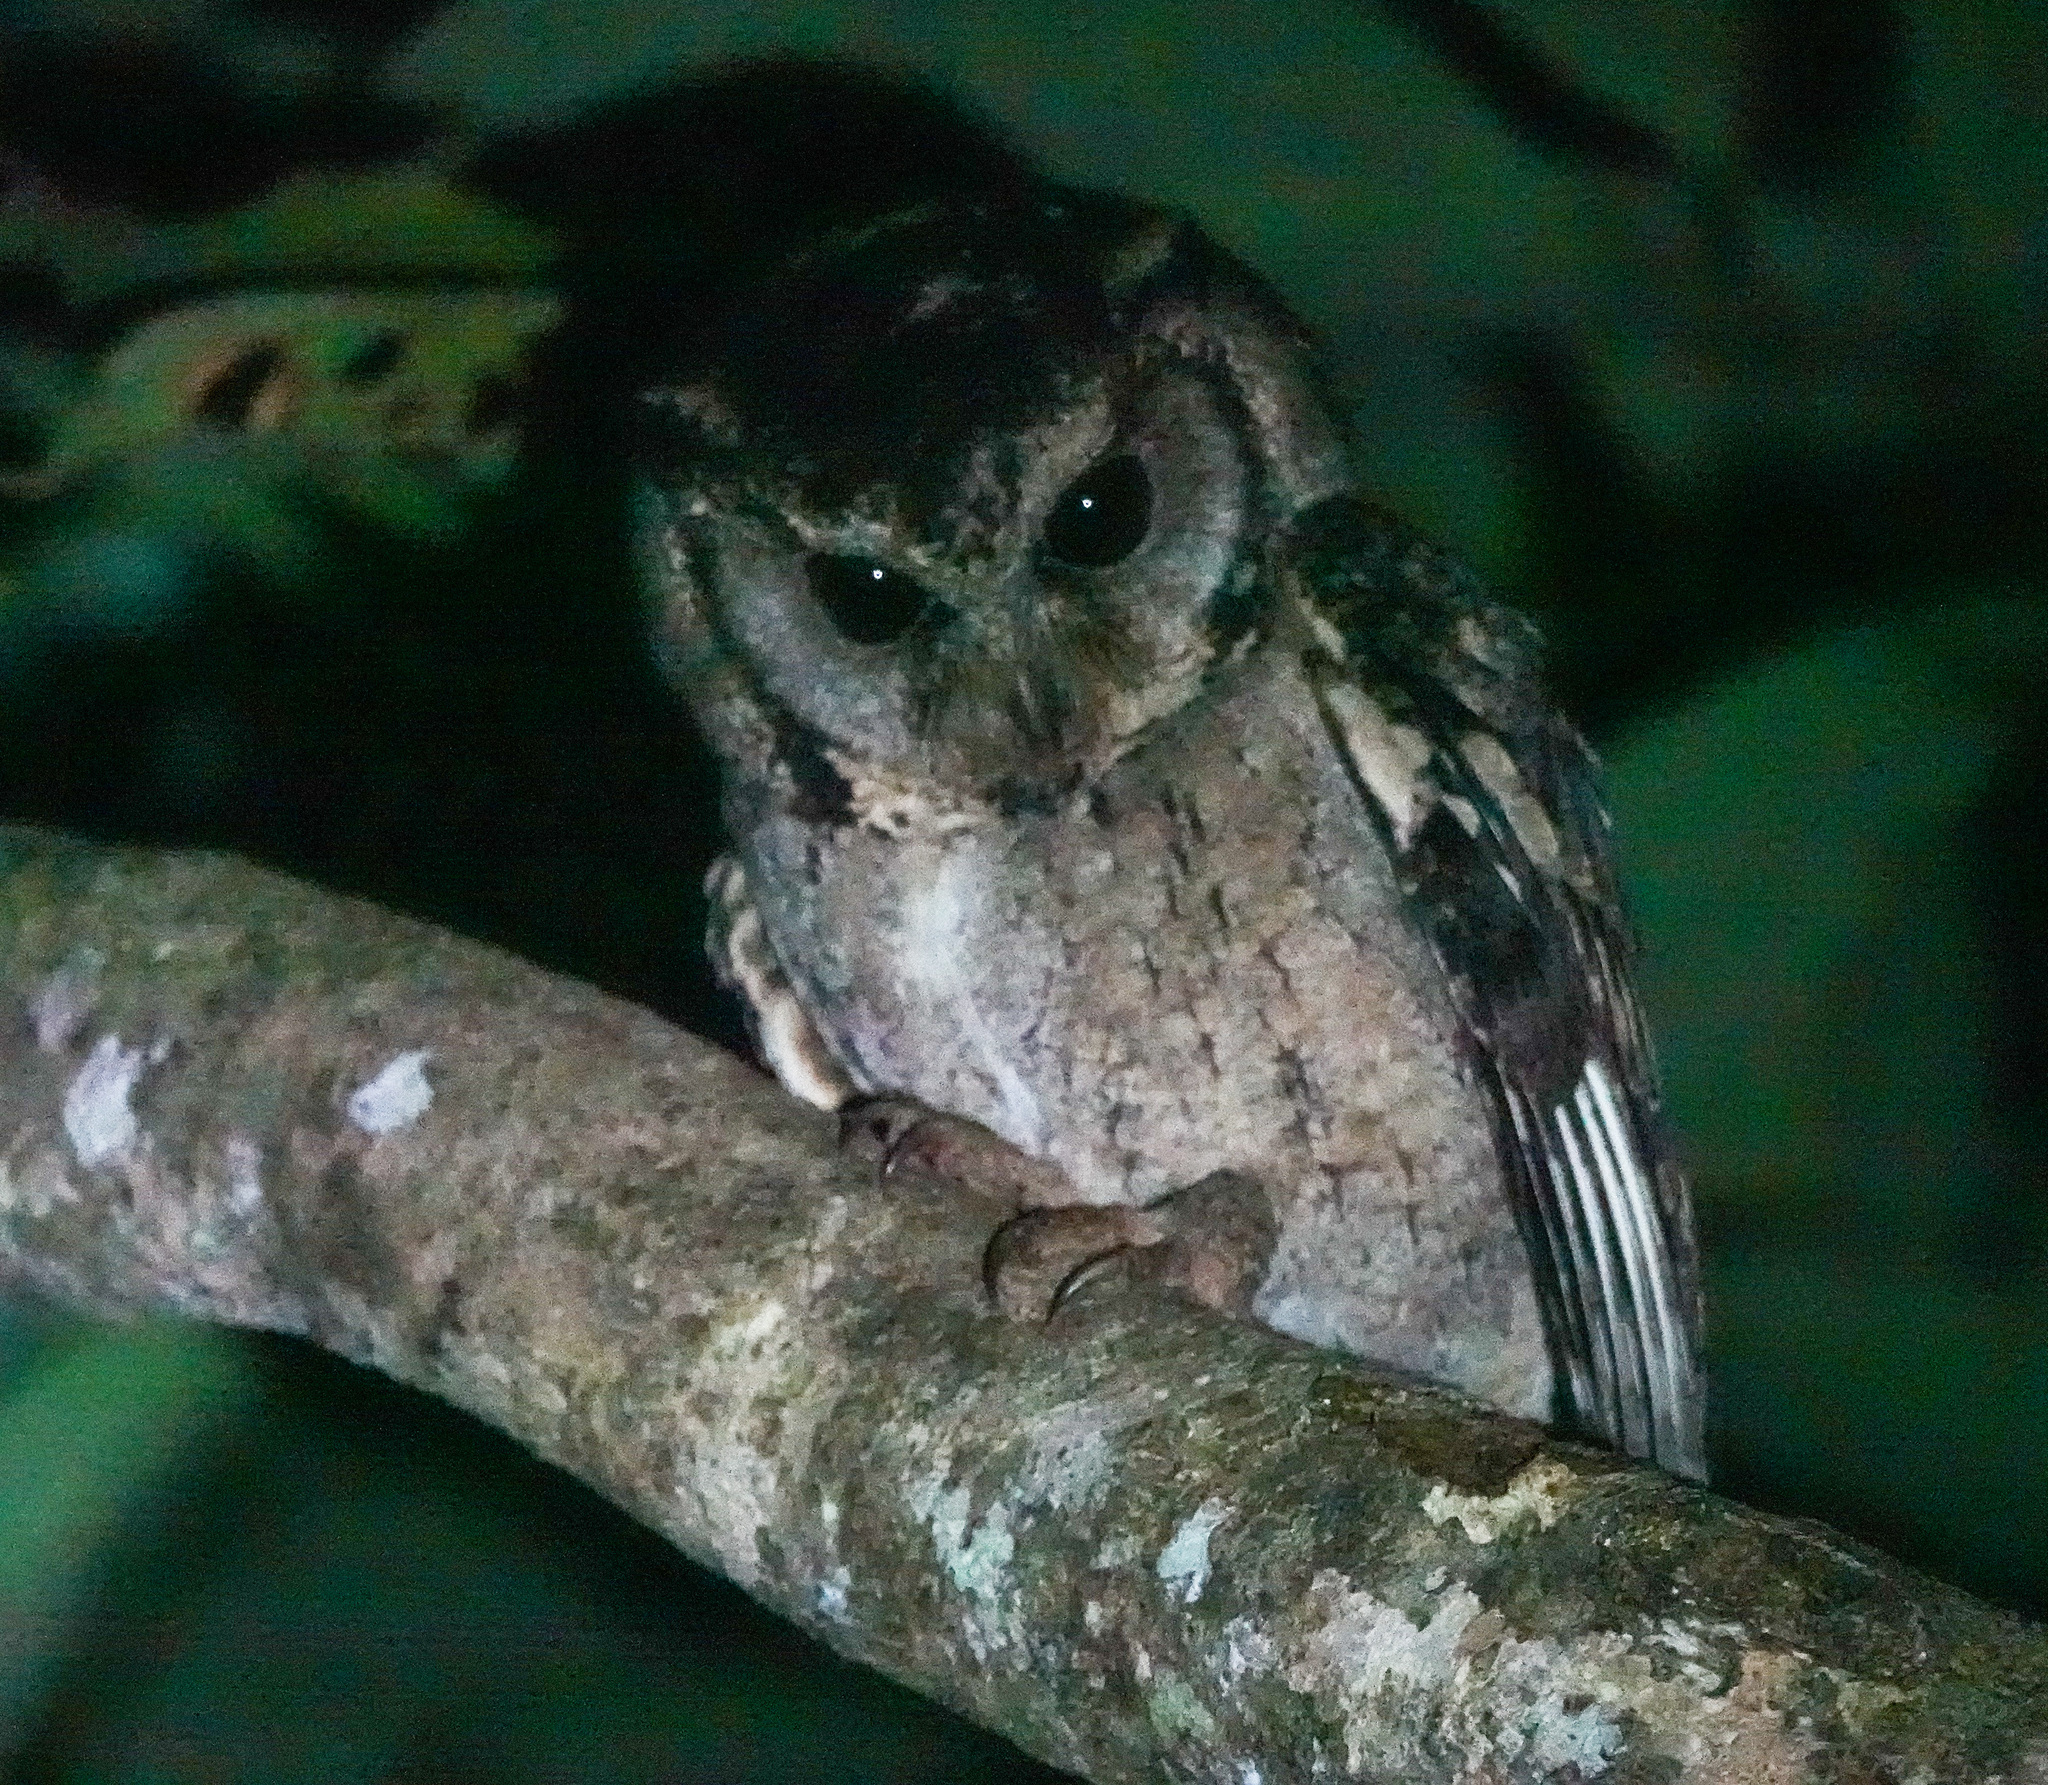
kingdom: Animalia
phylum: Chordata
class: Aves
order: Strigiformes
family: Strigidae
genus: Otus
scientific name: Otus lettia
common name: Collared scops owl
